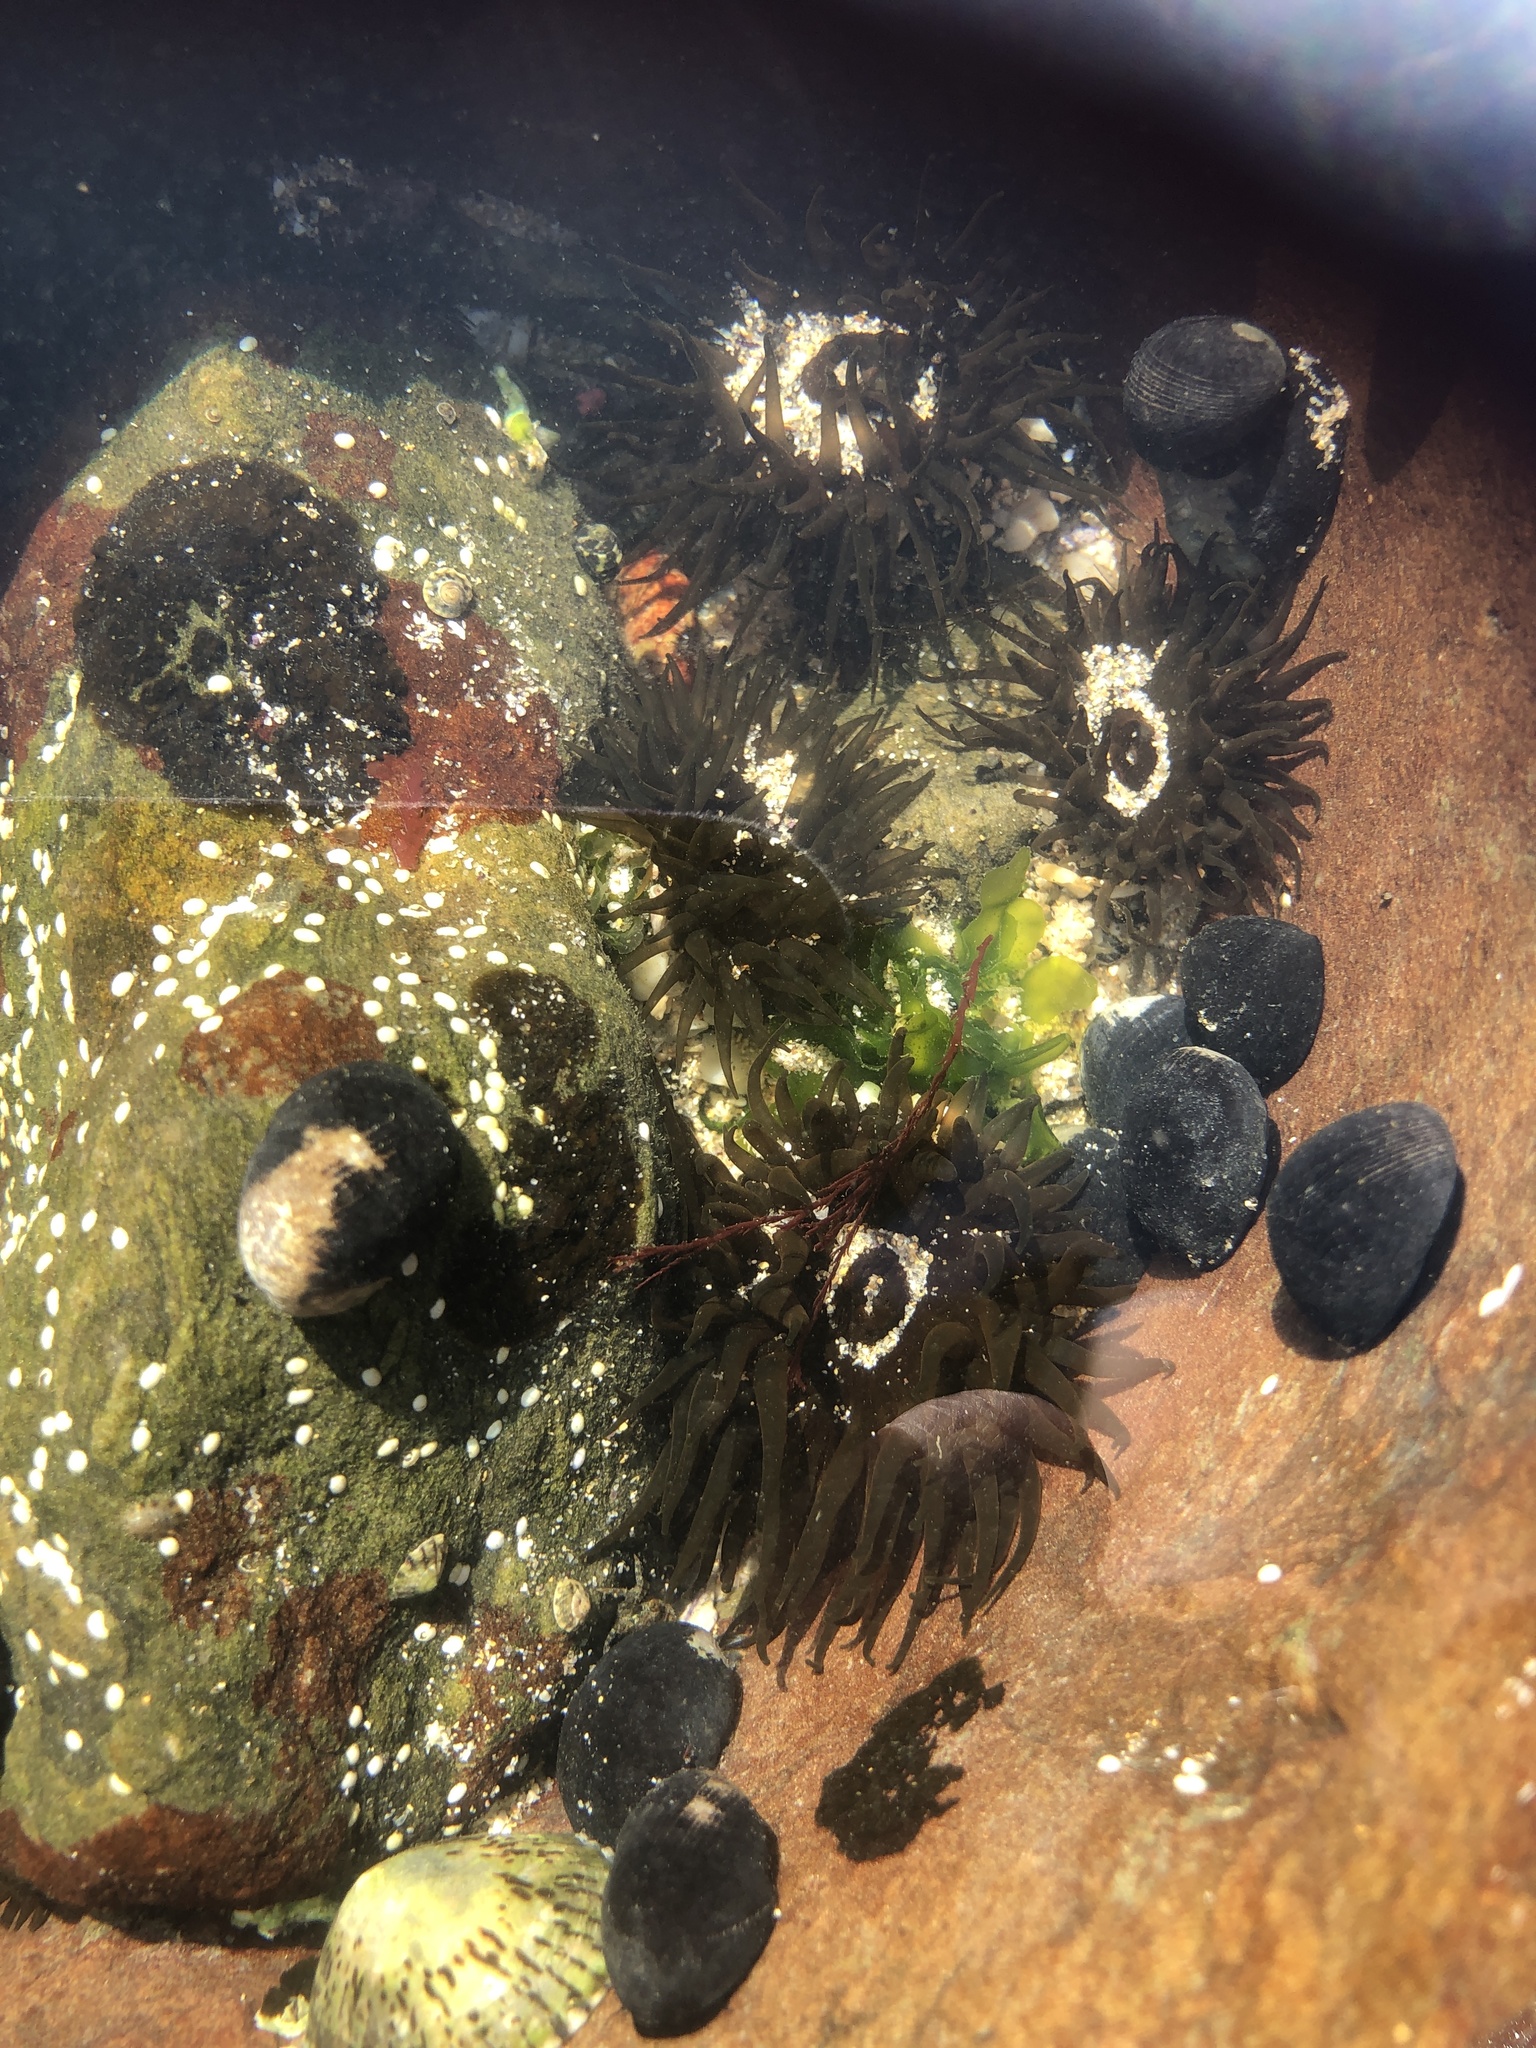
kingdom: Animalia
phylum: Cnidaria
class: Anthozoa
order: Actiniaria
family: Actiniidae
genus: Aulactinia
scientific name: Aulactinia veratra
